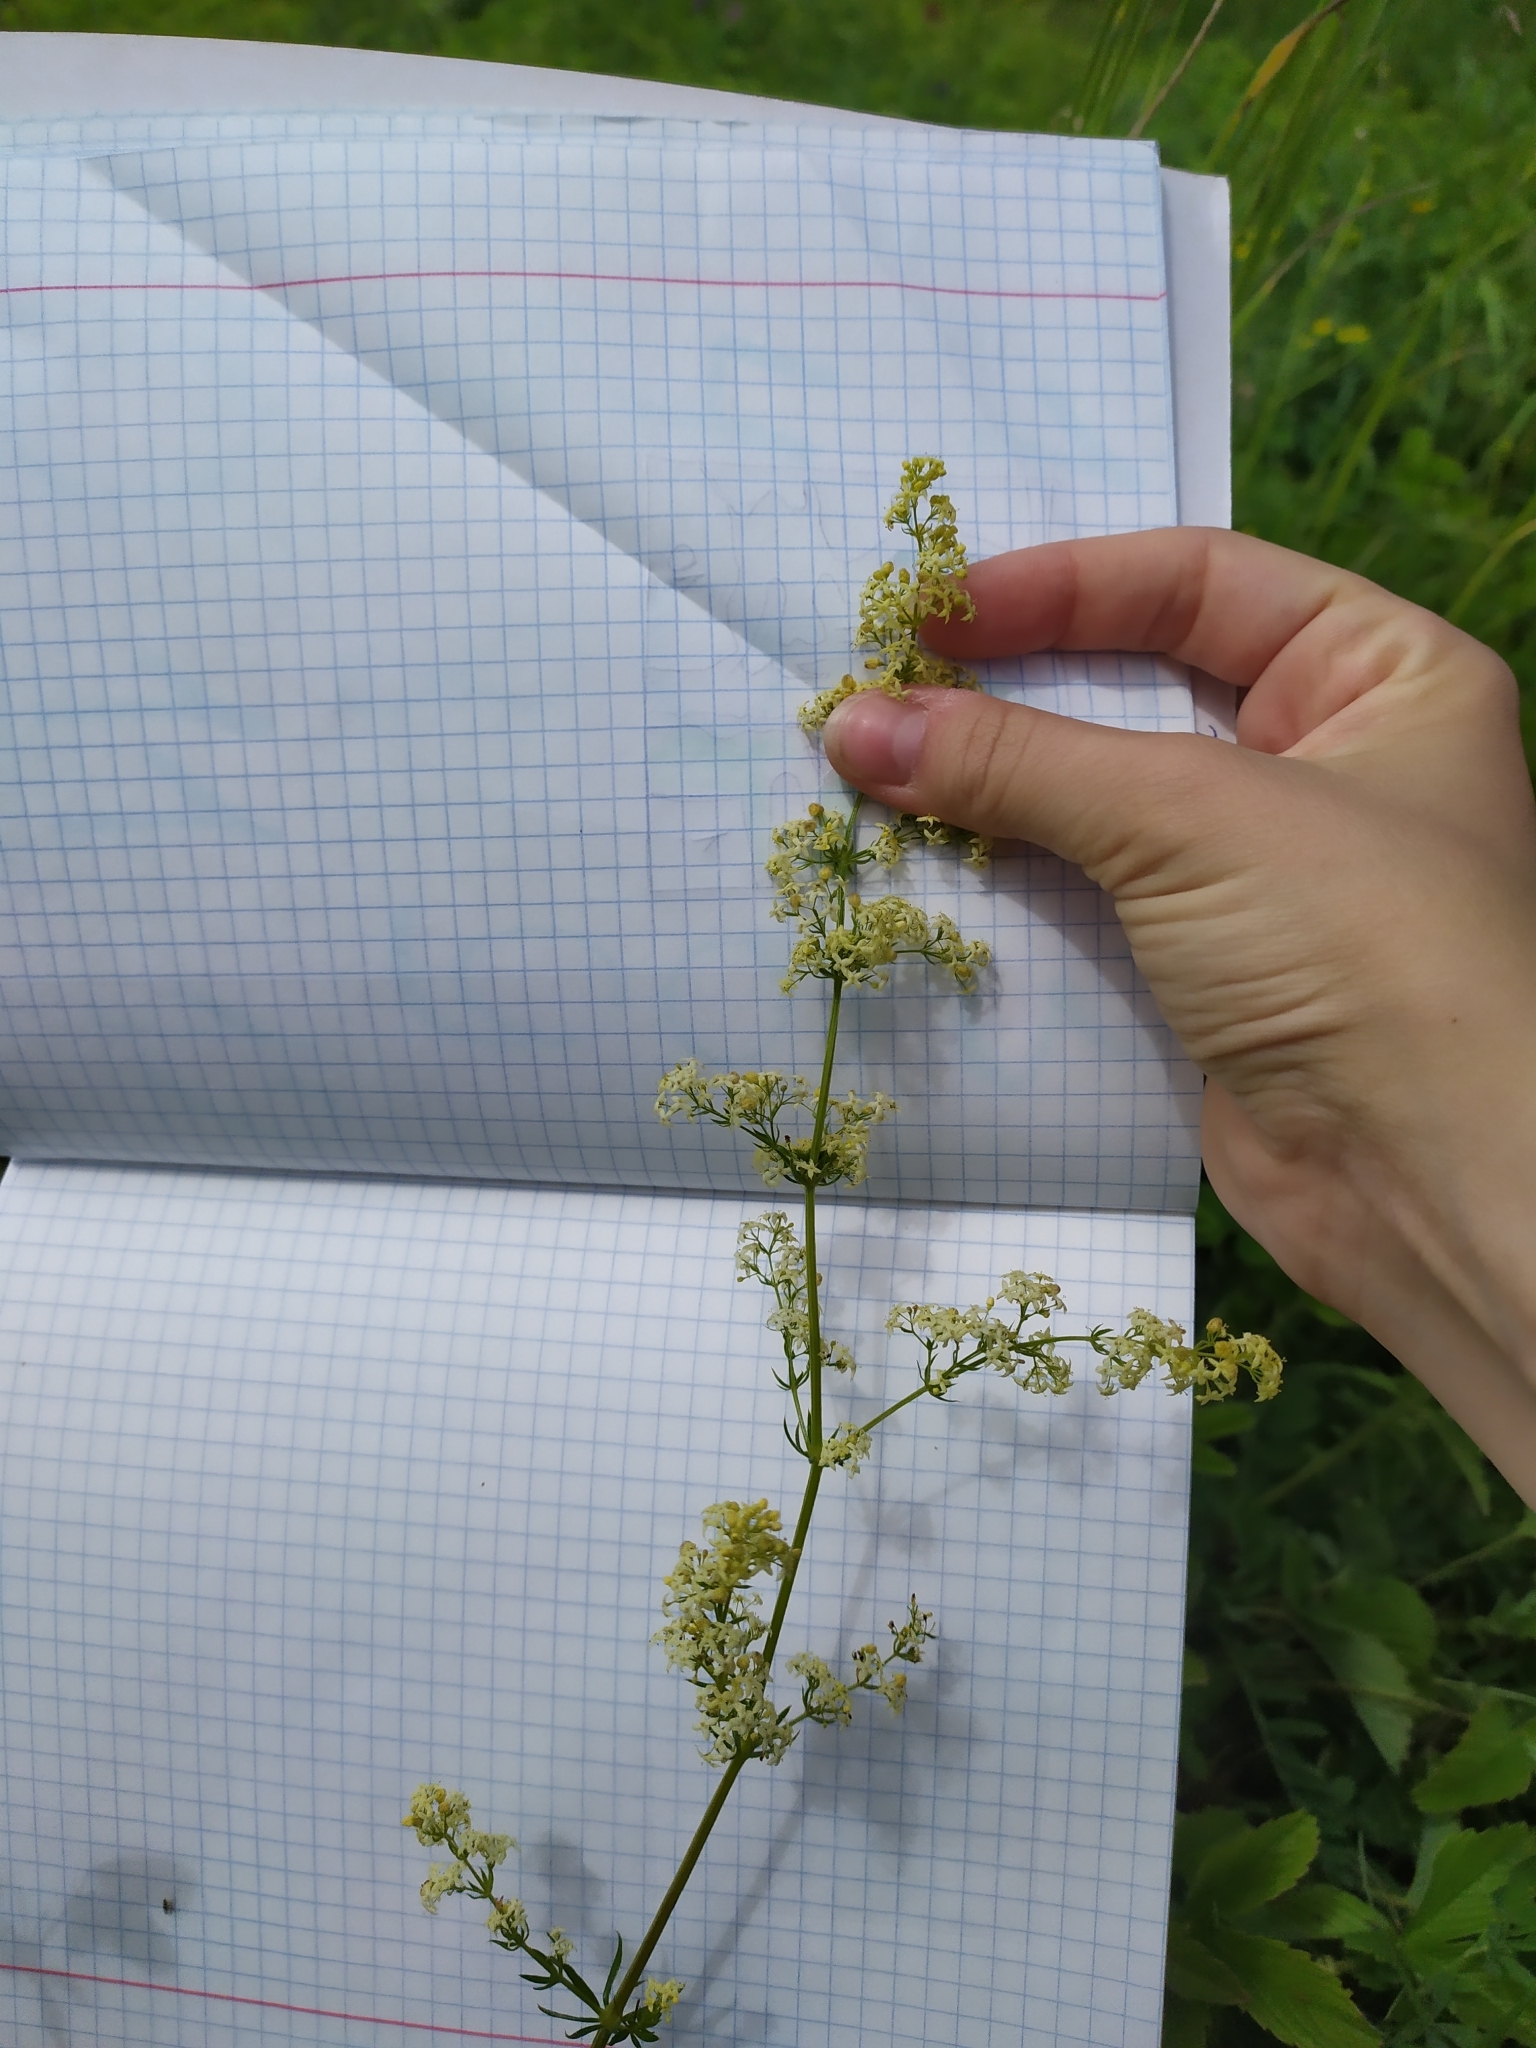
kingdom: Plantae
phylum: Tracheophyta
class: Magnoliopsida
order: Gentianales
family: Rubiaceae
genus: Galium
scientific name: Galium mollugo
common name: Hedge bedstraw
